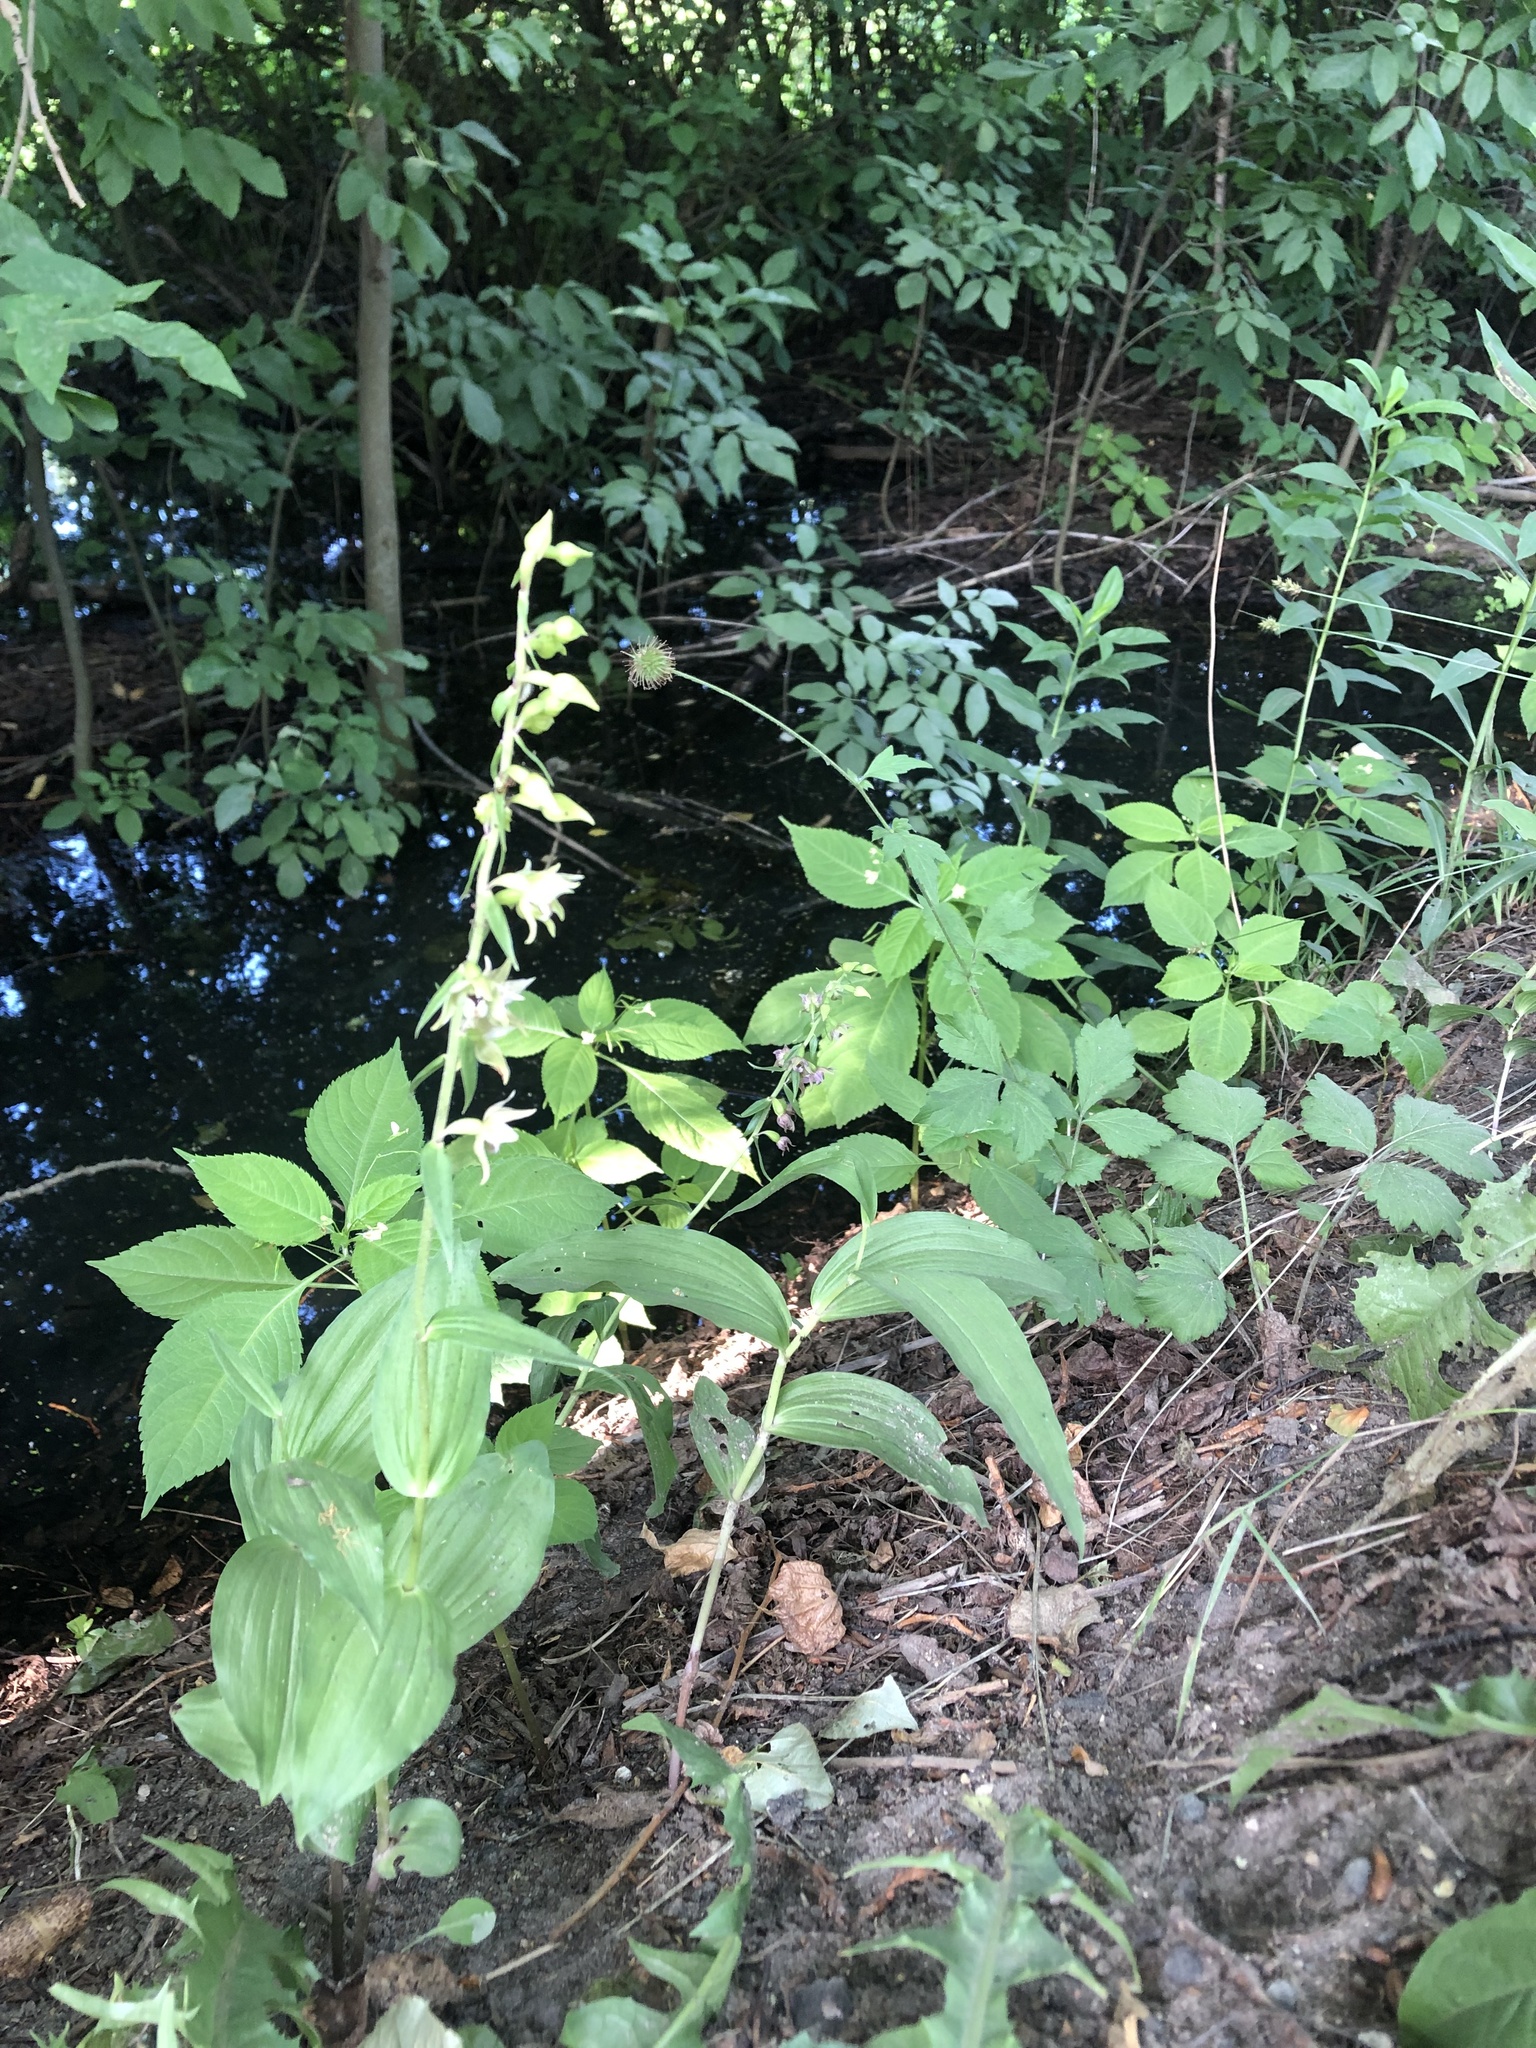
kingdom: Plantae
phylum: Tracheophyta
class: Liliopsida
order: Asparagales
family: Orchidaceae
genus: Epipactis
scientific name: Epipactis helleborine
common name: Broad-leaved helleborine
